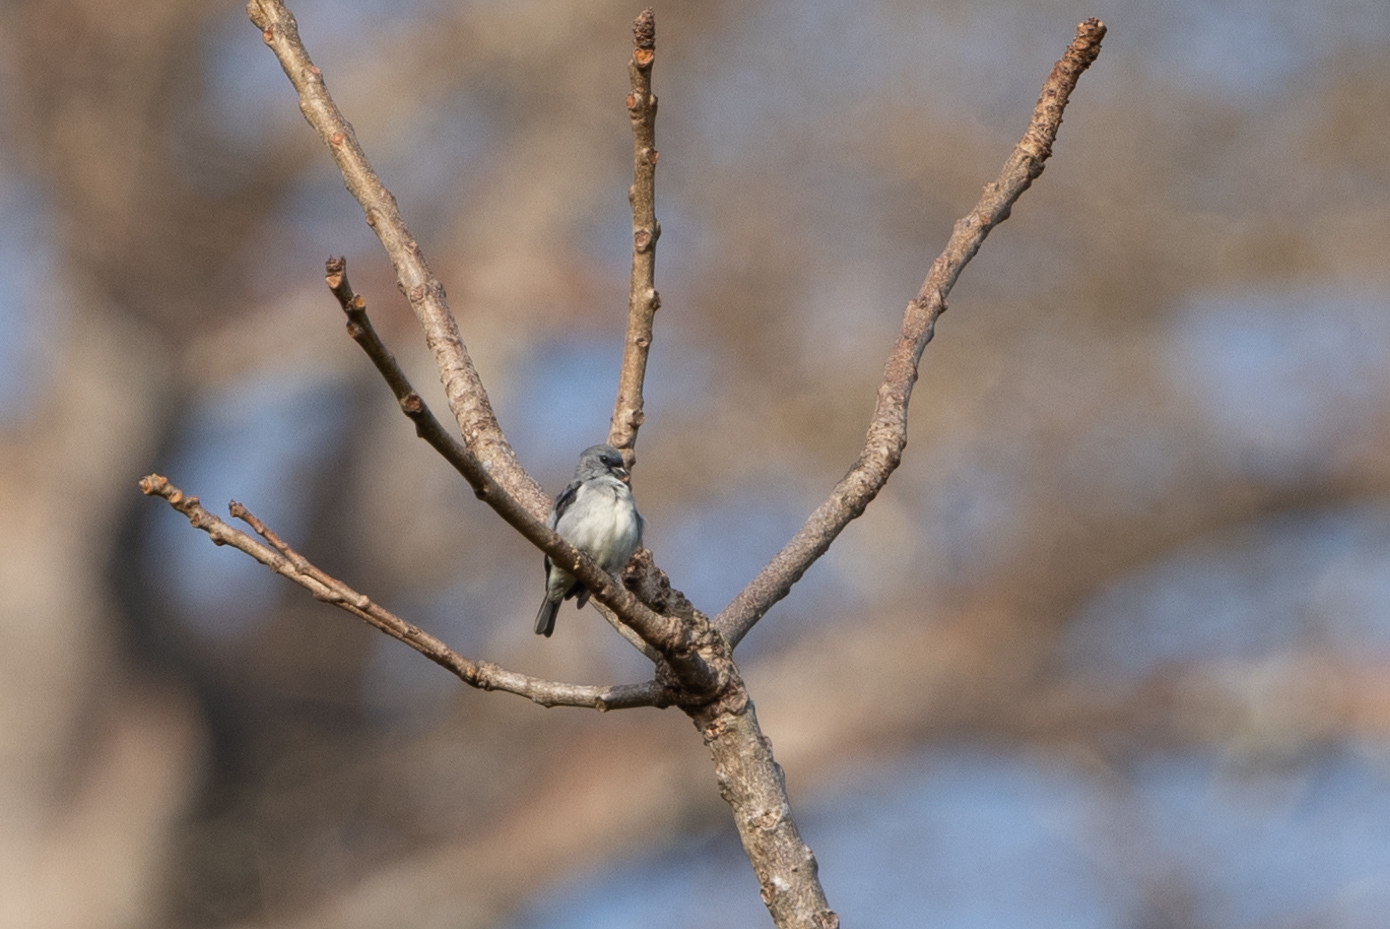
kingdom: Animalia
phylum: Chordata
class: Aves
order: Passeriformes
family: Thraupidae
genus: Tangara
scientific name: Tangara inornata
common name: Plain-colored tanager
